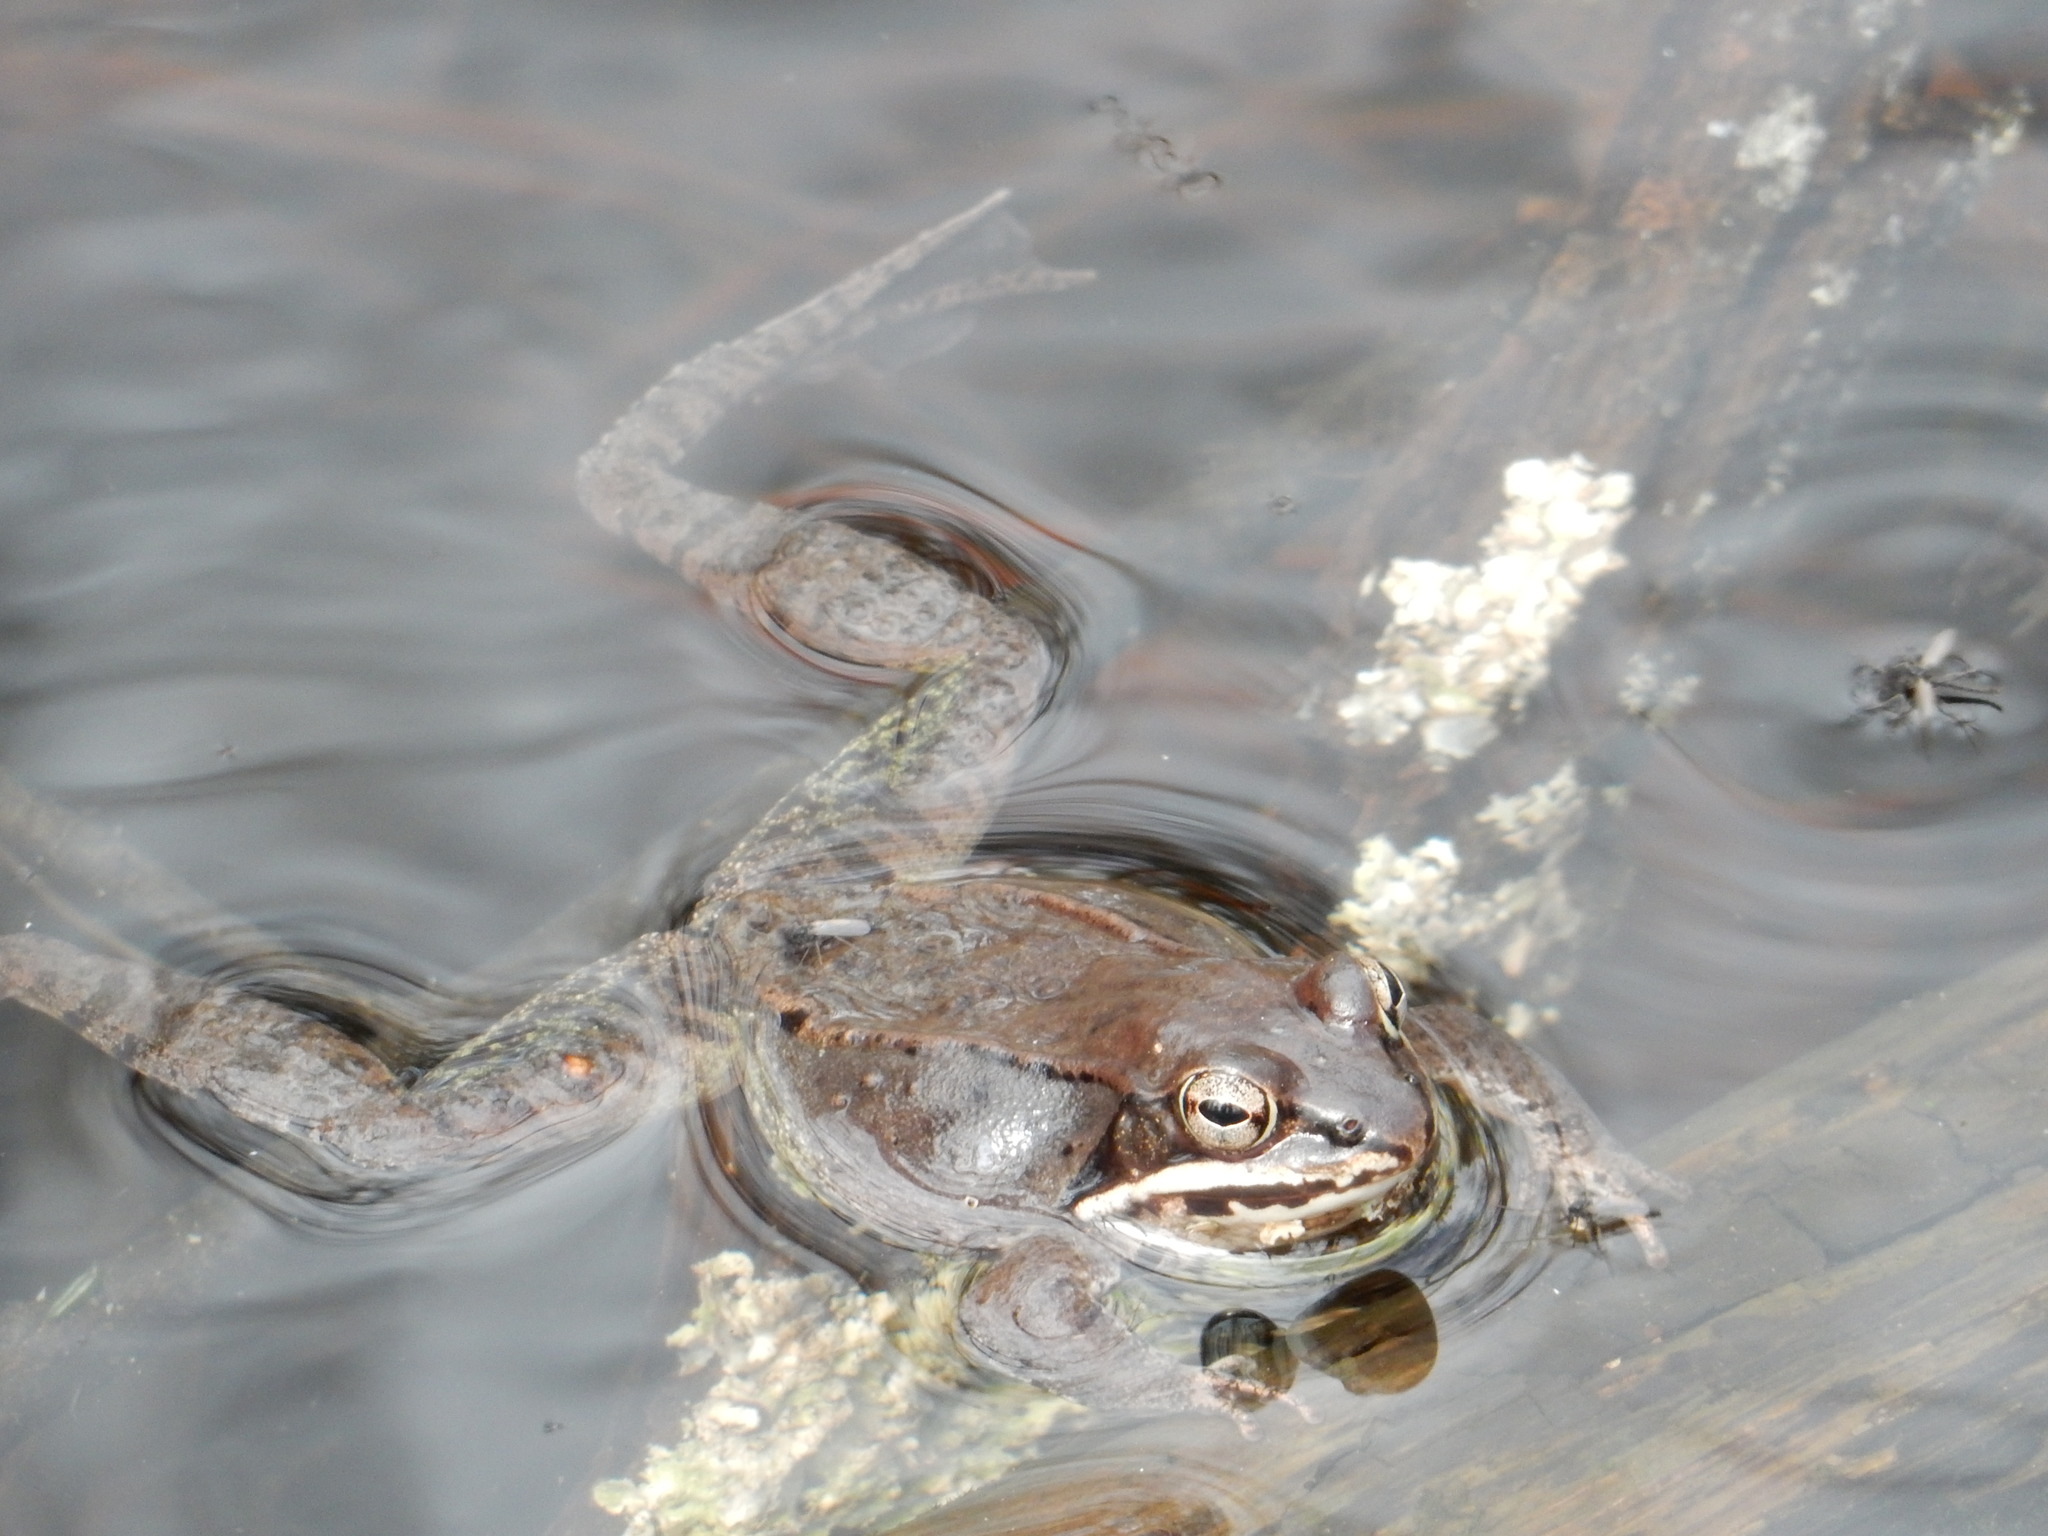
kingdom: Animalia
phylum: Chordata
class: Amphibia
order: Anura
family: Ranidae
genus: Lithobates
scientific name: Lithobates sylvaticus
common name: Wood frog
